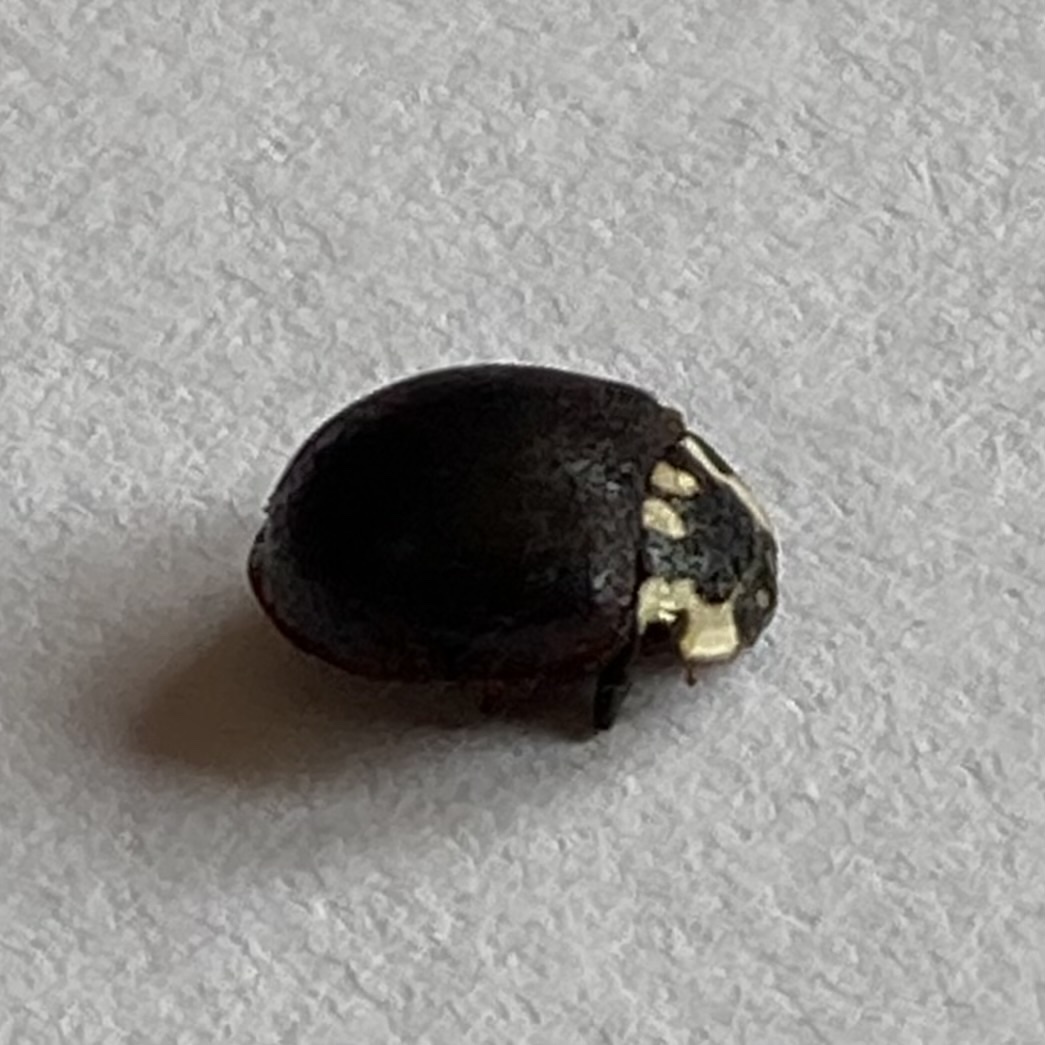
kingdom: Animalia
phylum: Arthropoda
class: Insecta
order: Coleoptera
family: Coccinellidae
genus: Anatis
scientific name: Anatis labiculata
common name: Fifteen-spotted lady beetle
